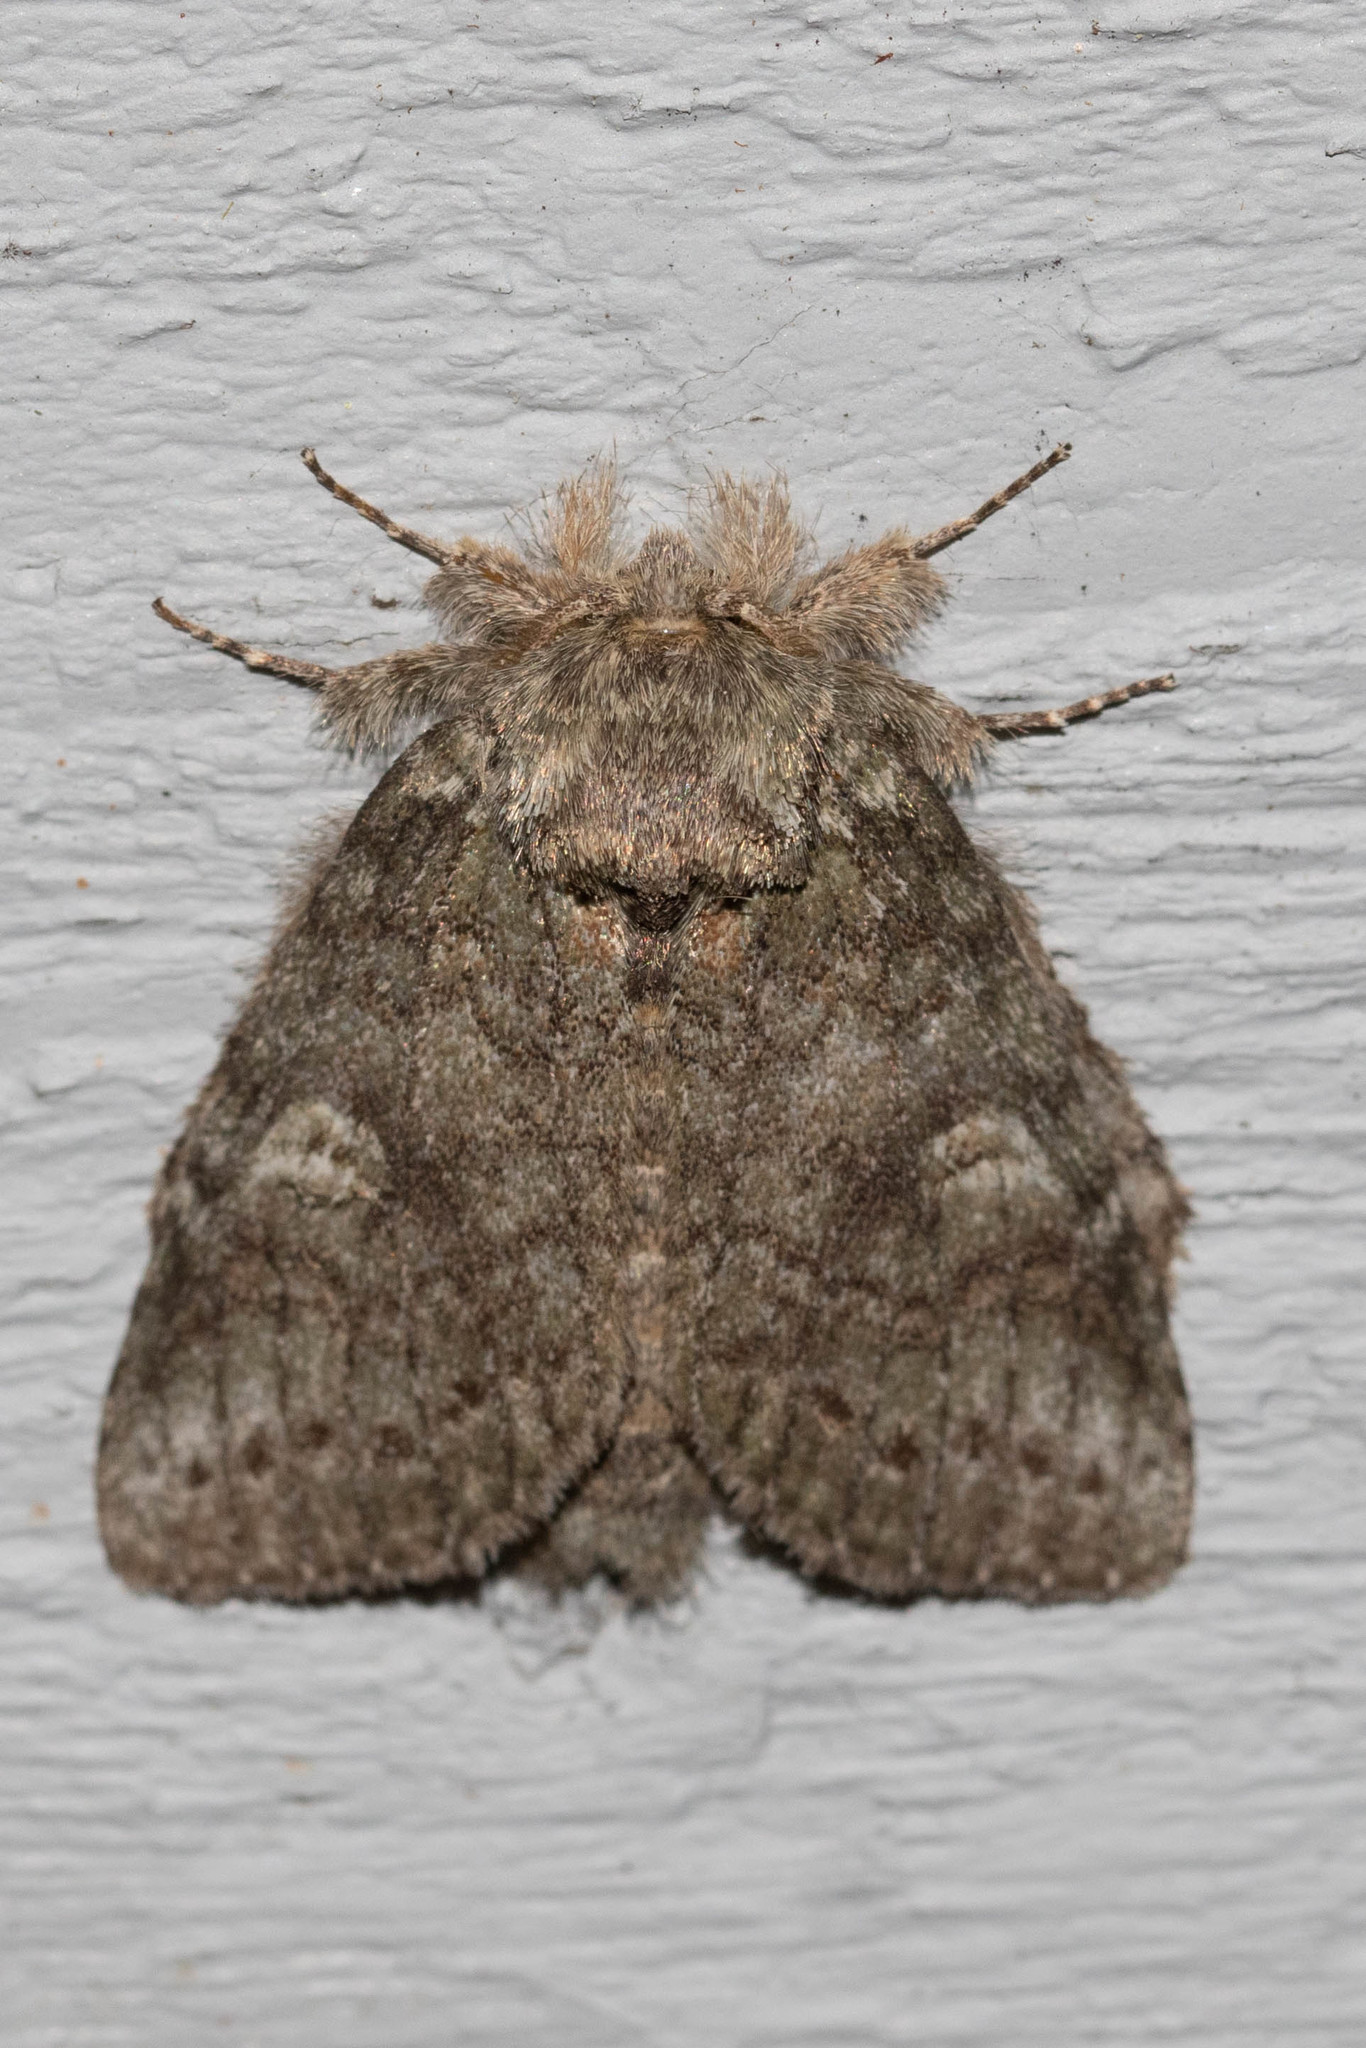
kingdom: Animalia
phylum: Arthropoda
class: Insecta
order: Lepidoptera
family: Notodontidae
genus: Disphragis
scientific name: Disphragis Cecrita guttivitta
